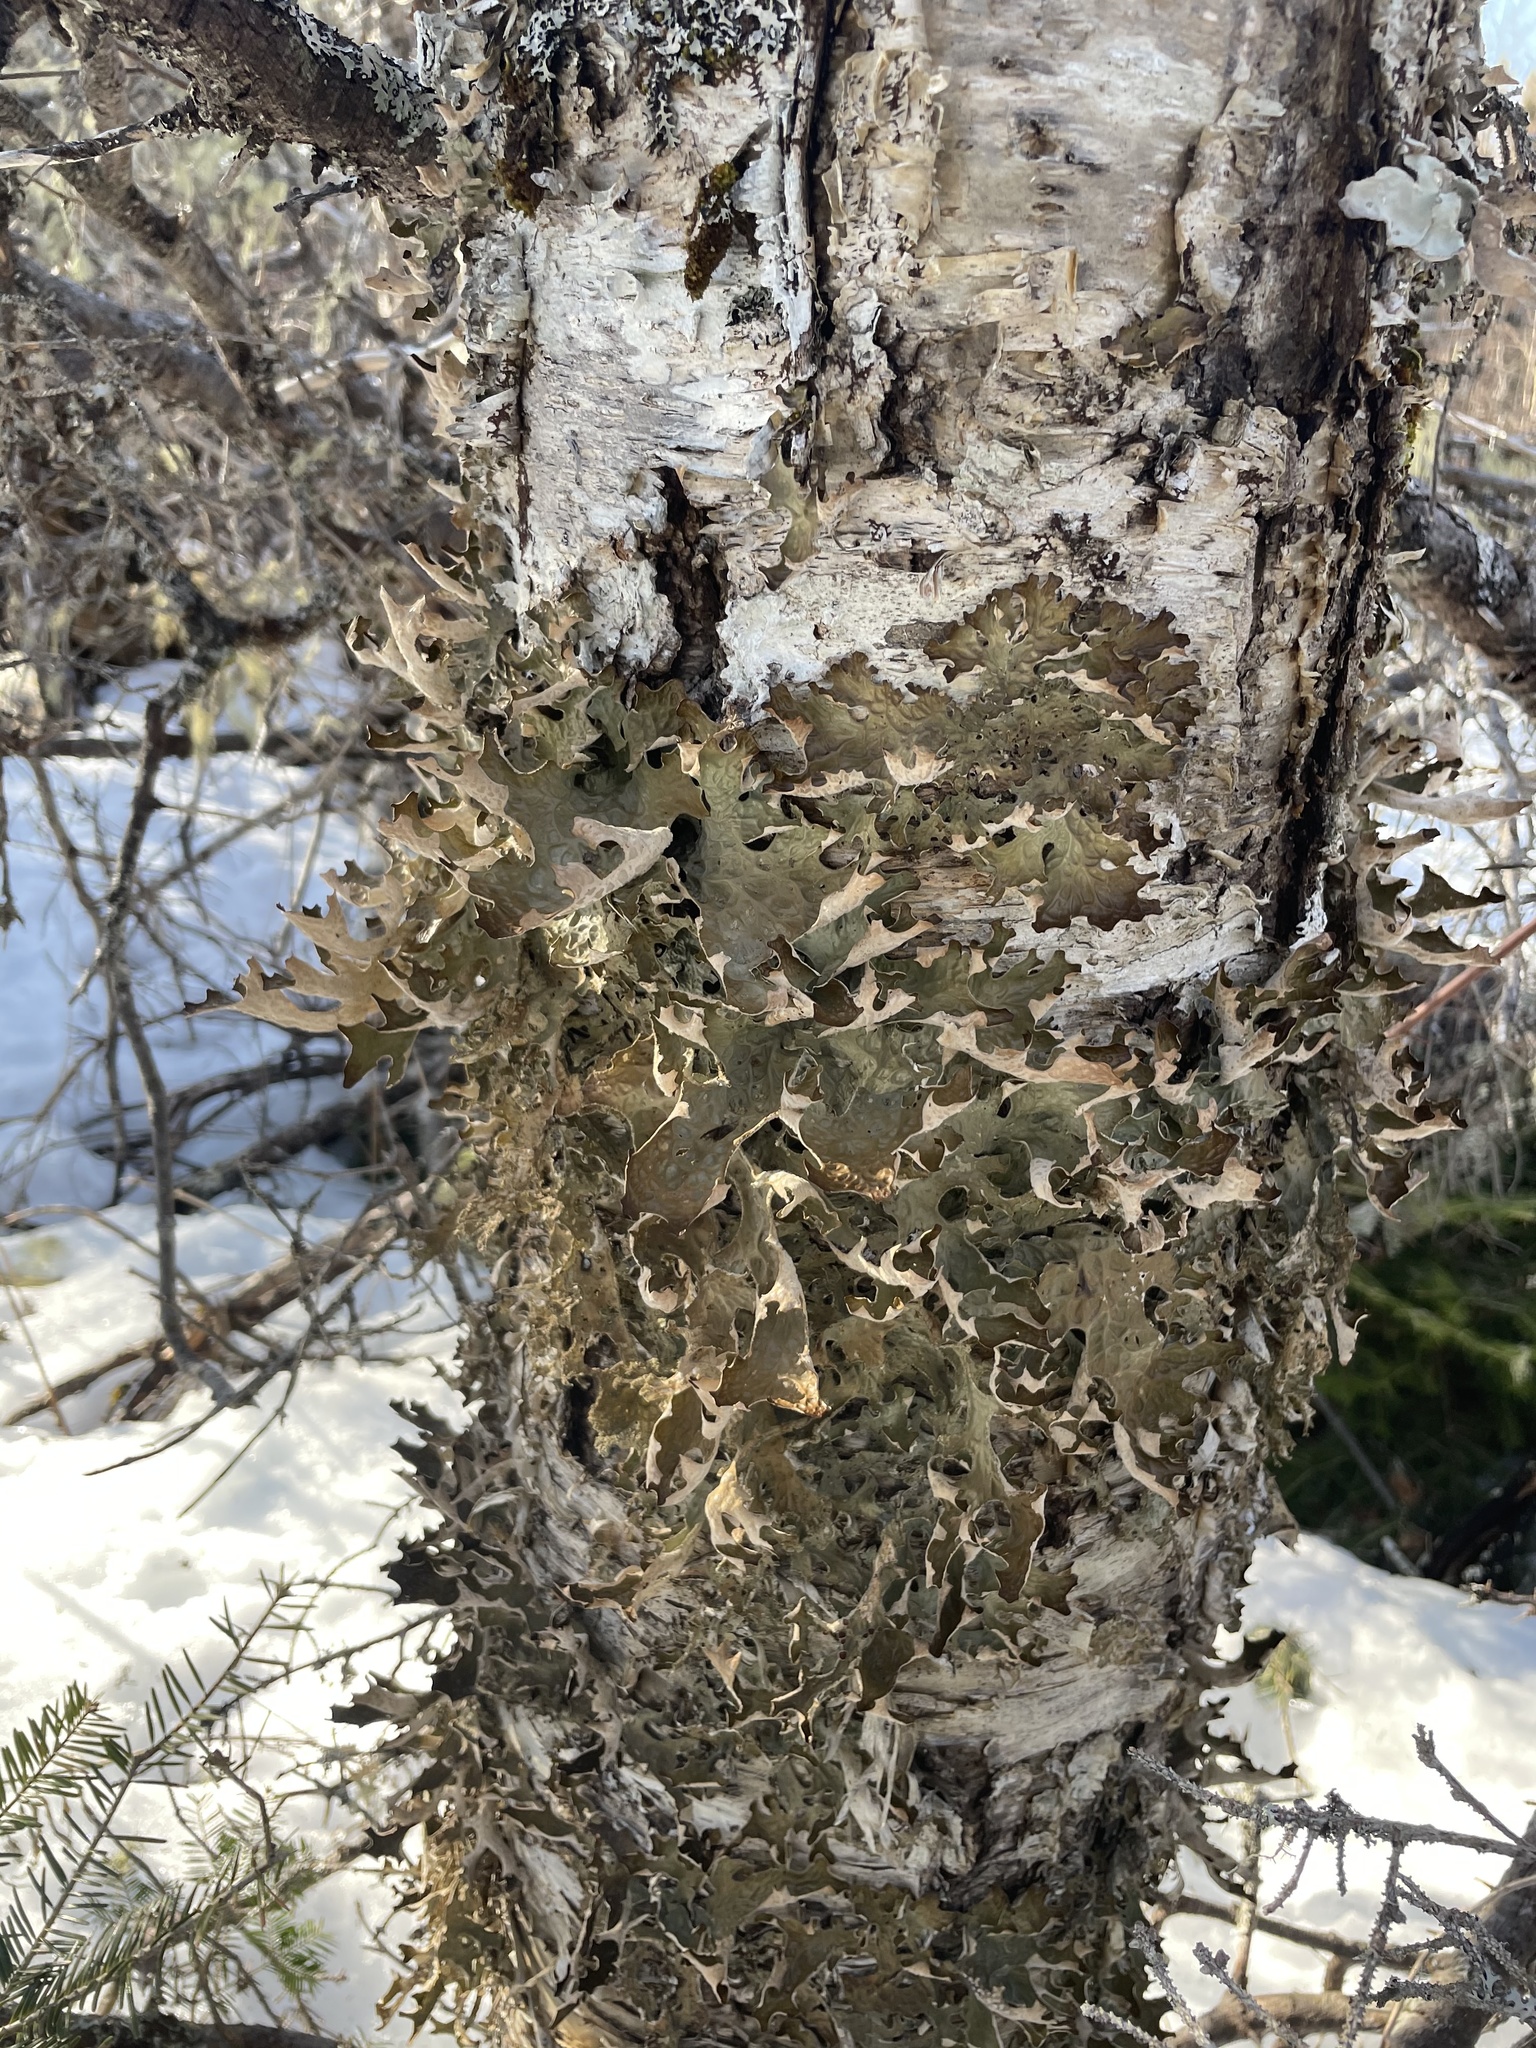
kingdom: Fungi
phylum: Ascomycota
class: Lecanoromycetes
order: Peltigerales
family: Lobariaceae
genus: Lobaria
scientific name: Lobaria pulmonaria
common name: Lungwort
